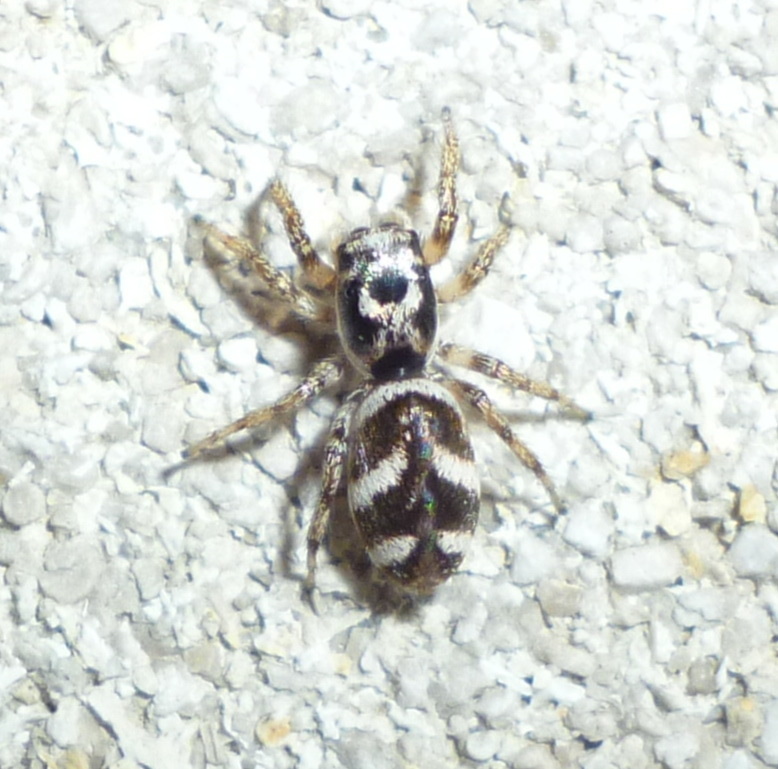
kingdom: Animalia
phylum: Arthropoda
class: Arachnida
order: Araneae
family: Salticidae
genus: Salticus
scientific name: Salticus scenicus
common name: Zebra jumper
